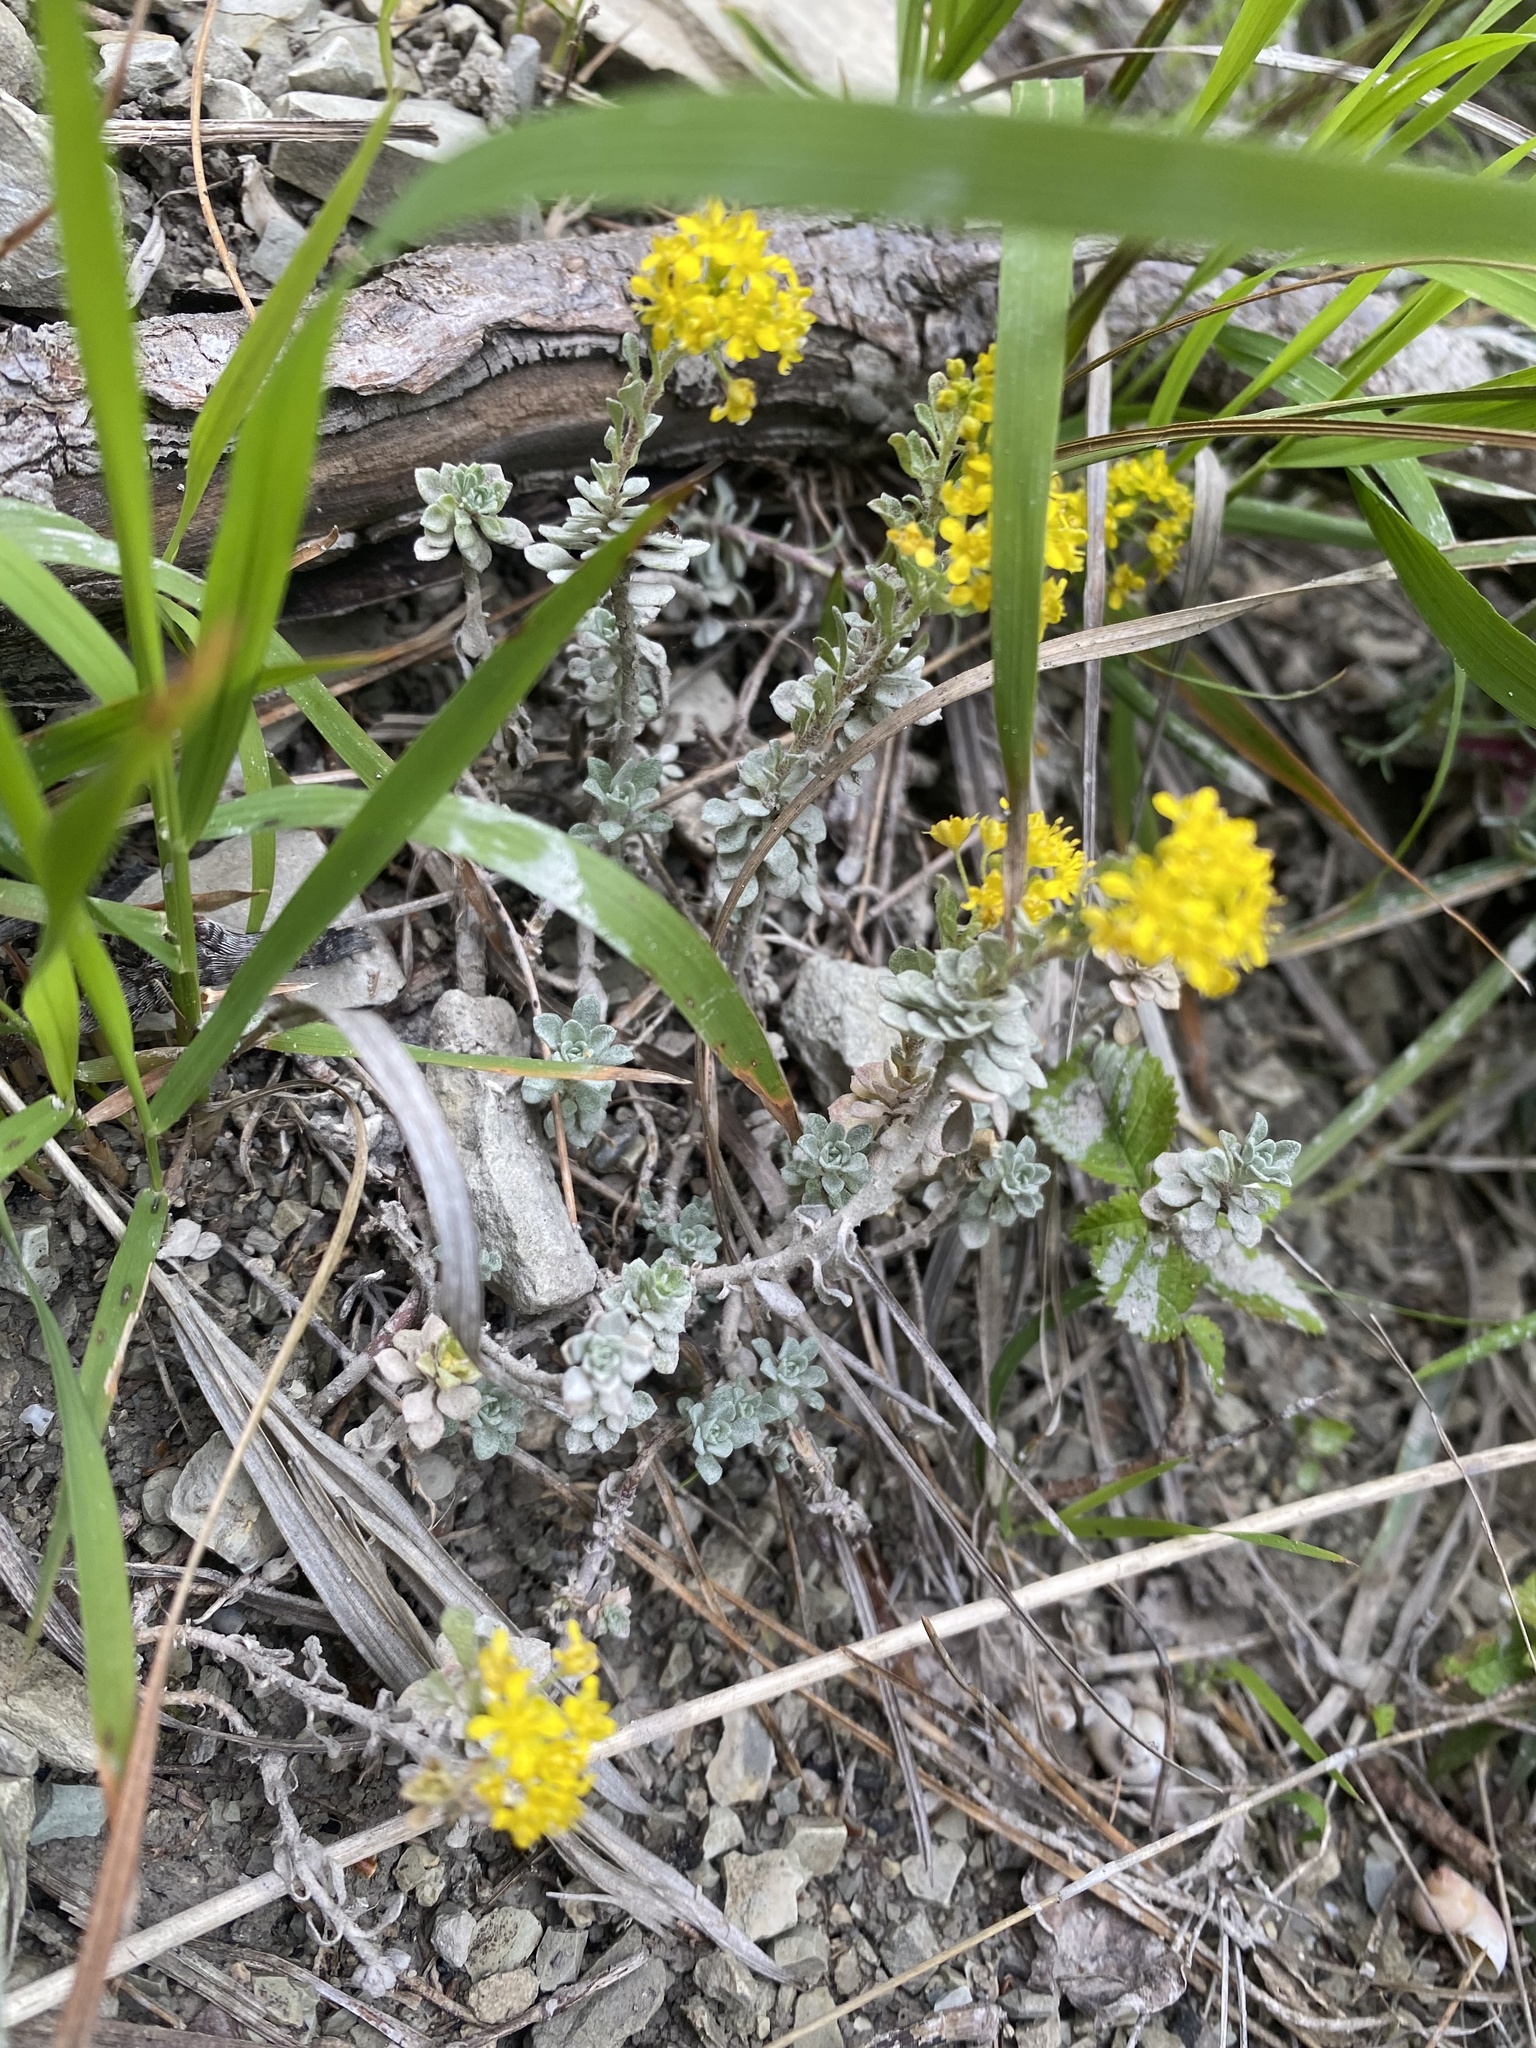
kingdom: Plantae
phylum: Tracheophyta
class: Magnoliopsida
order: Brassicales
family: Brassicaceae
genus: Odontarrhena
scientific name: Odontarrhena obtusifolia
